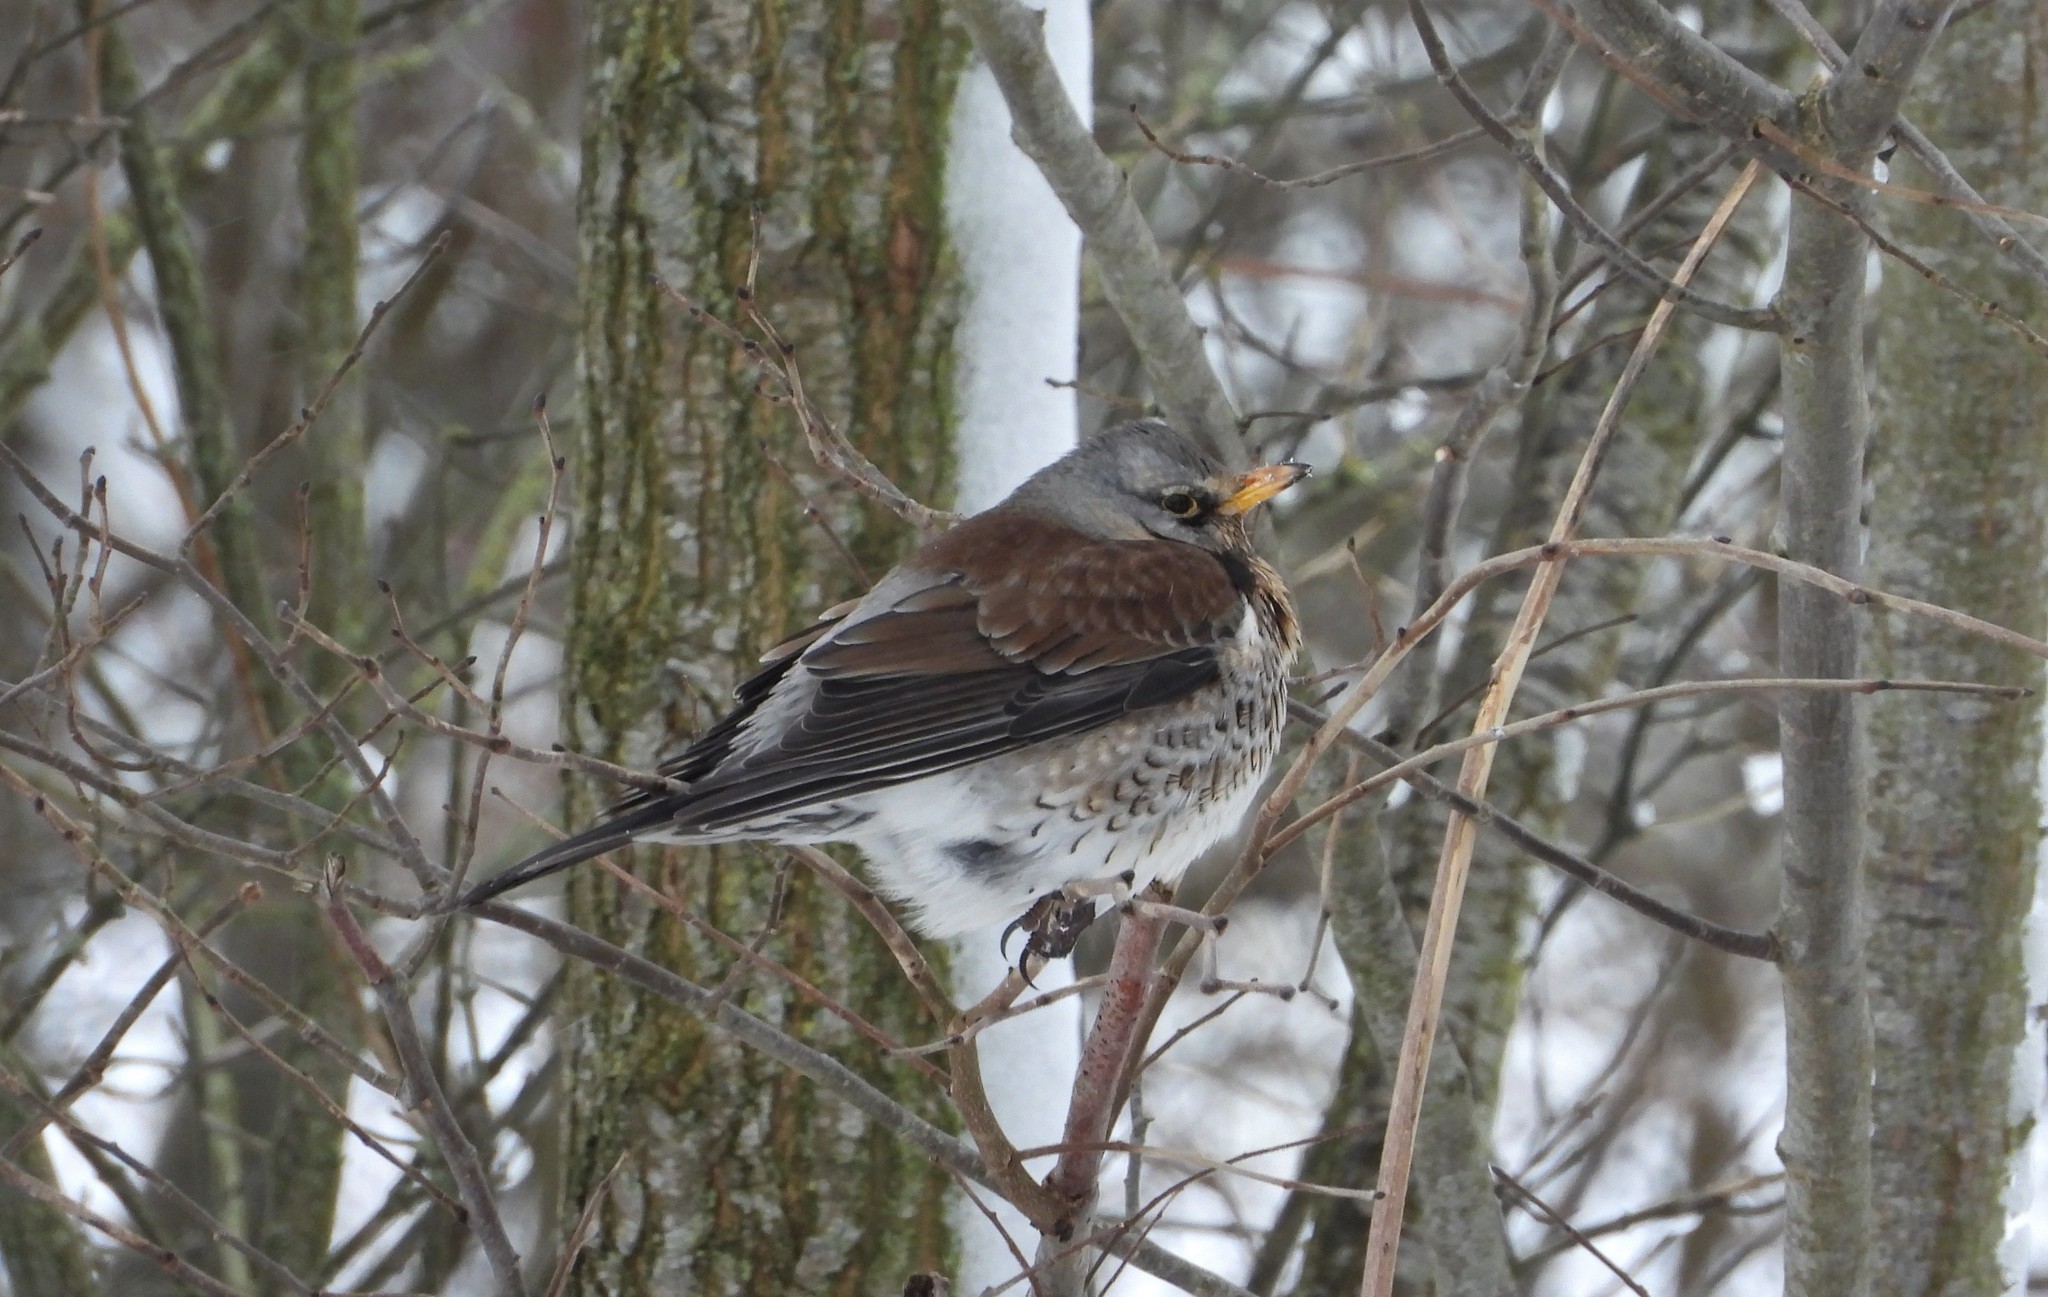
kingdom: Animalia
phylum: Chordata
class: Aves
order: Passeriformes
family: Turdidae
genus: Turdus
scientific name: Turdus pilaris
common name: Fieldfare
